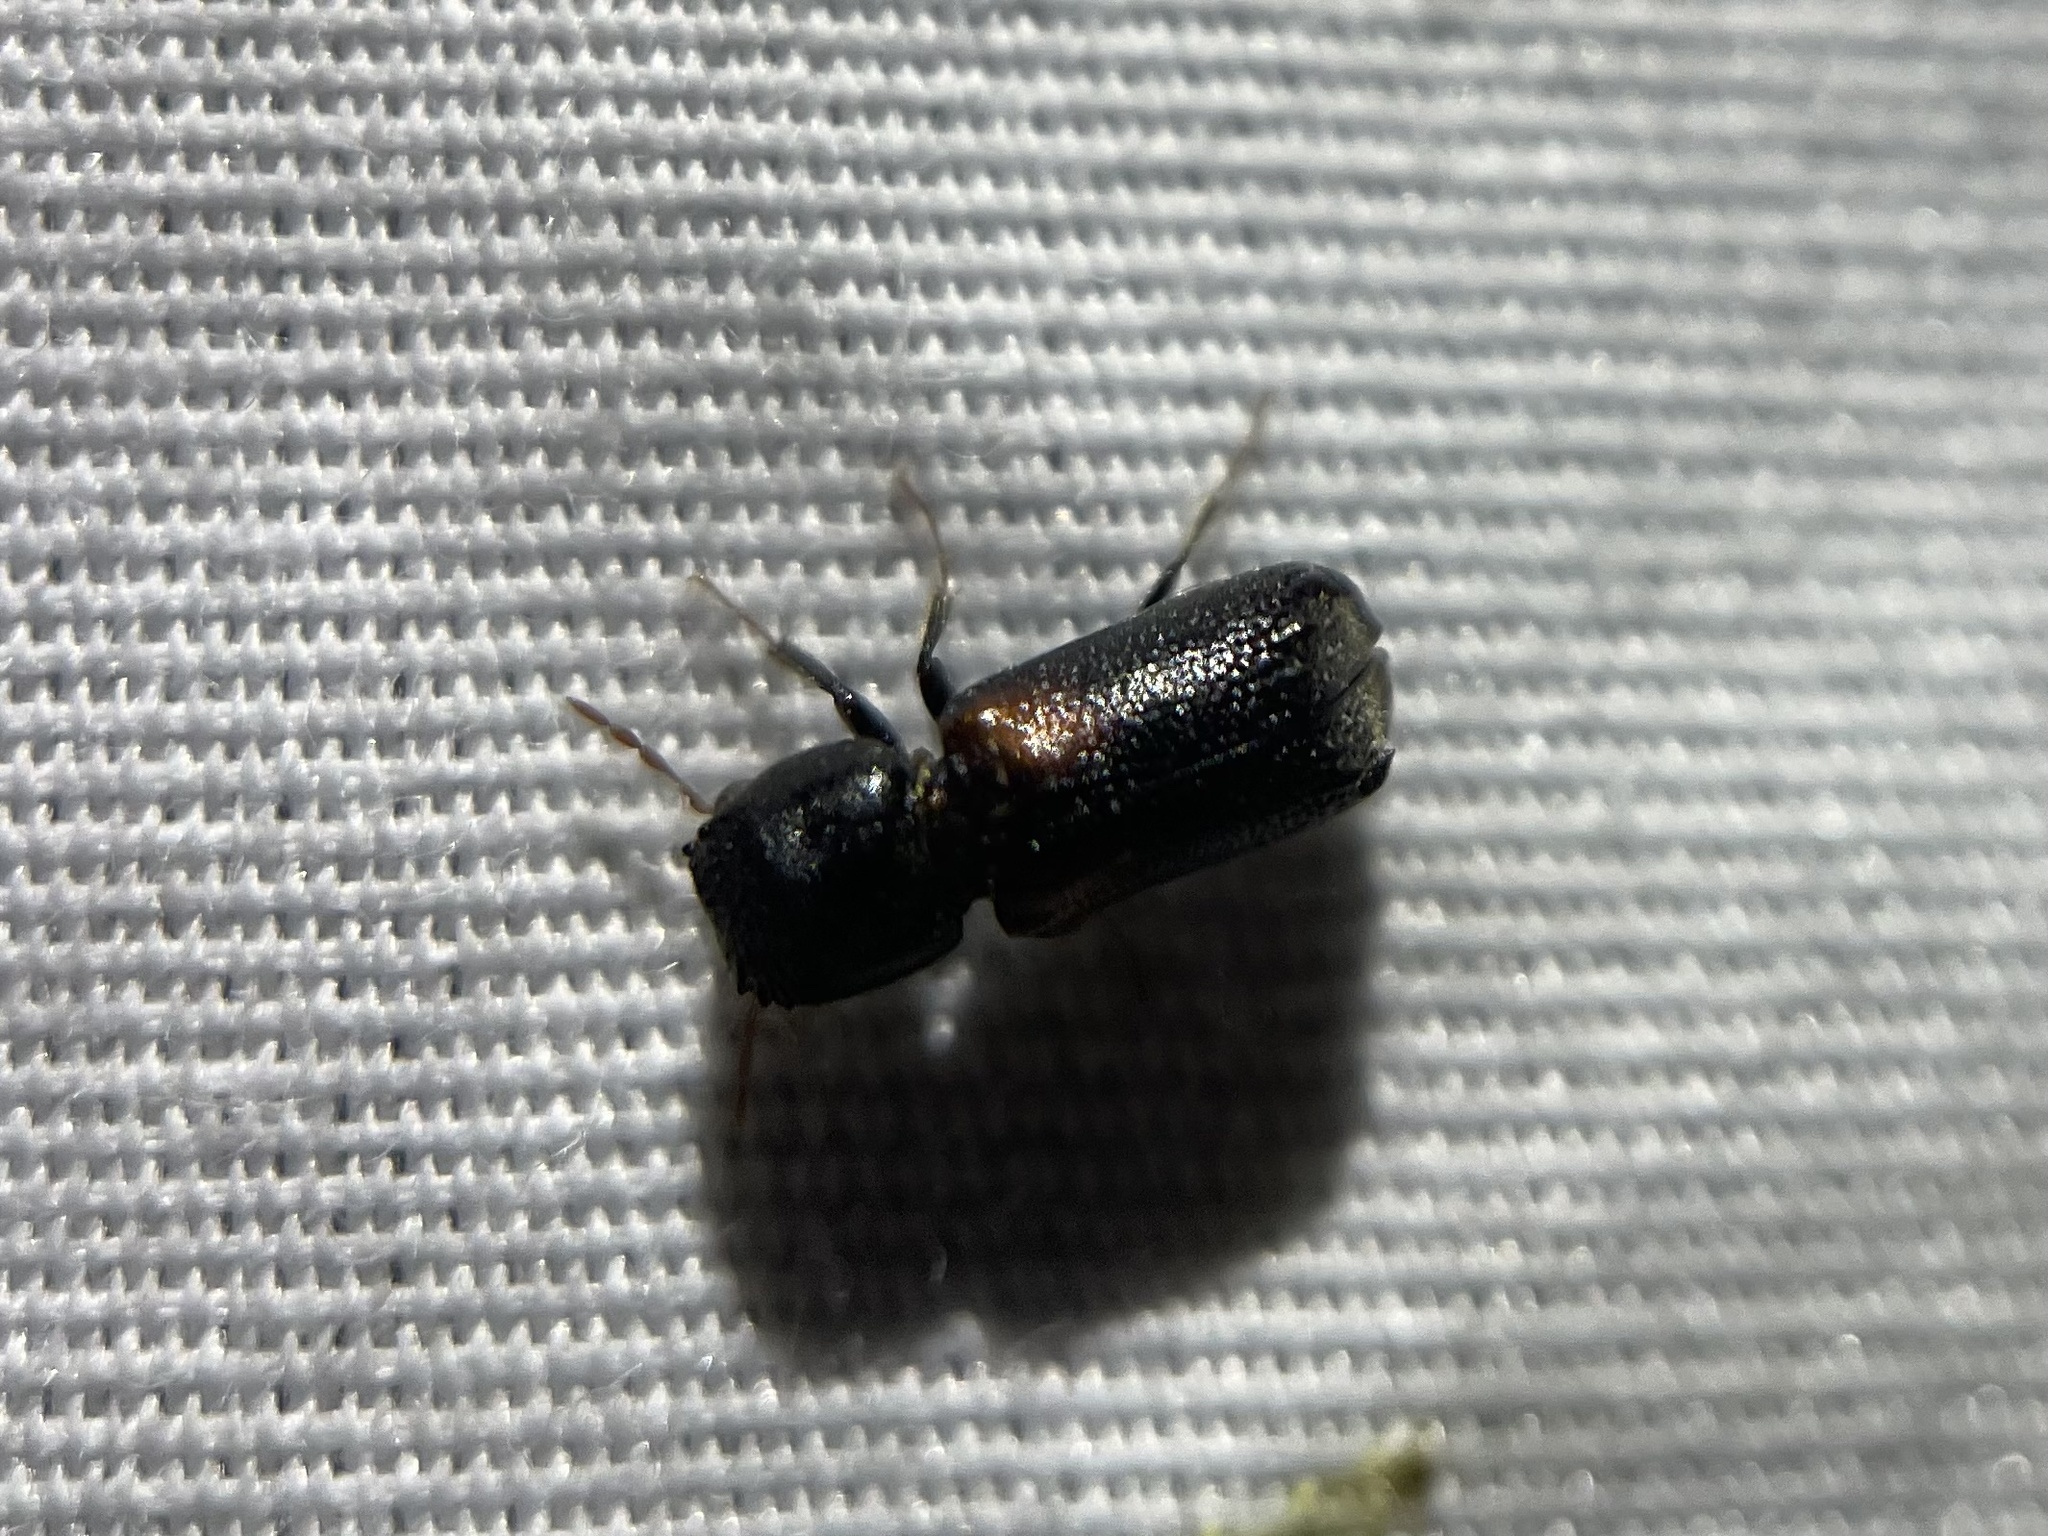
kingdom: Animalia
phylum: Arthropoda
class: Insecta
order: Coleoptera
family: Bostrichidae
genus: Xylobiops
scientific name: Xylobiops basilaris
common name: Red-shouldered bostrichid
